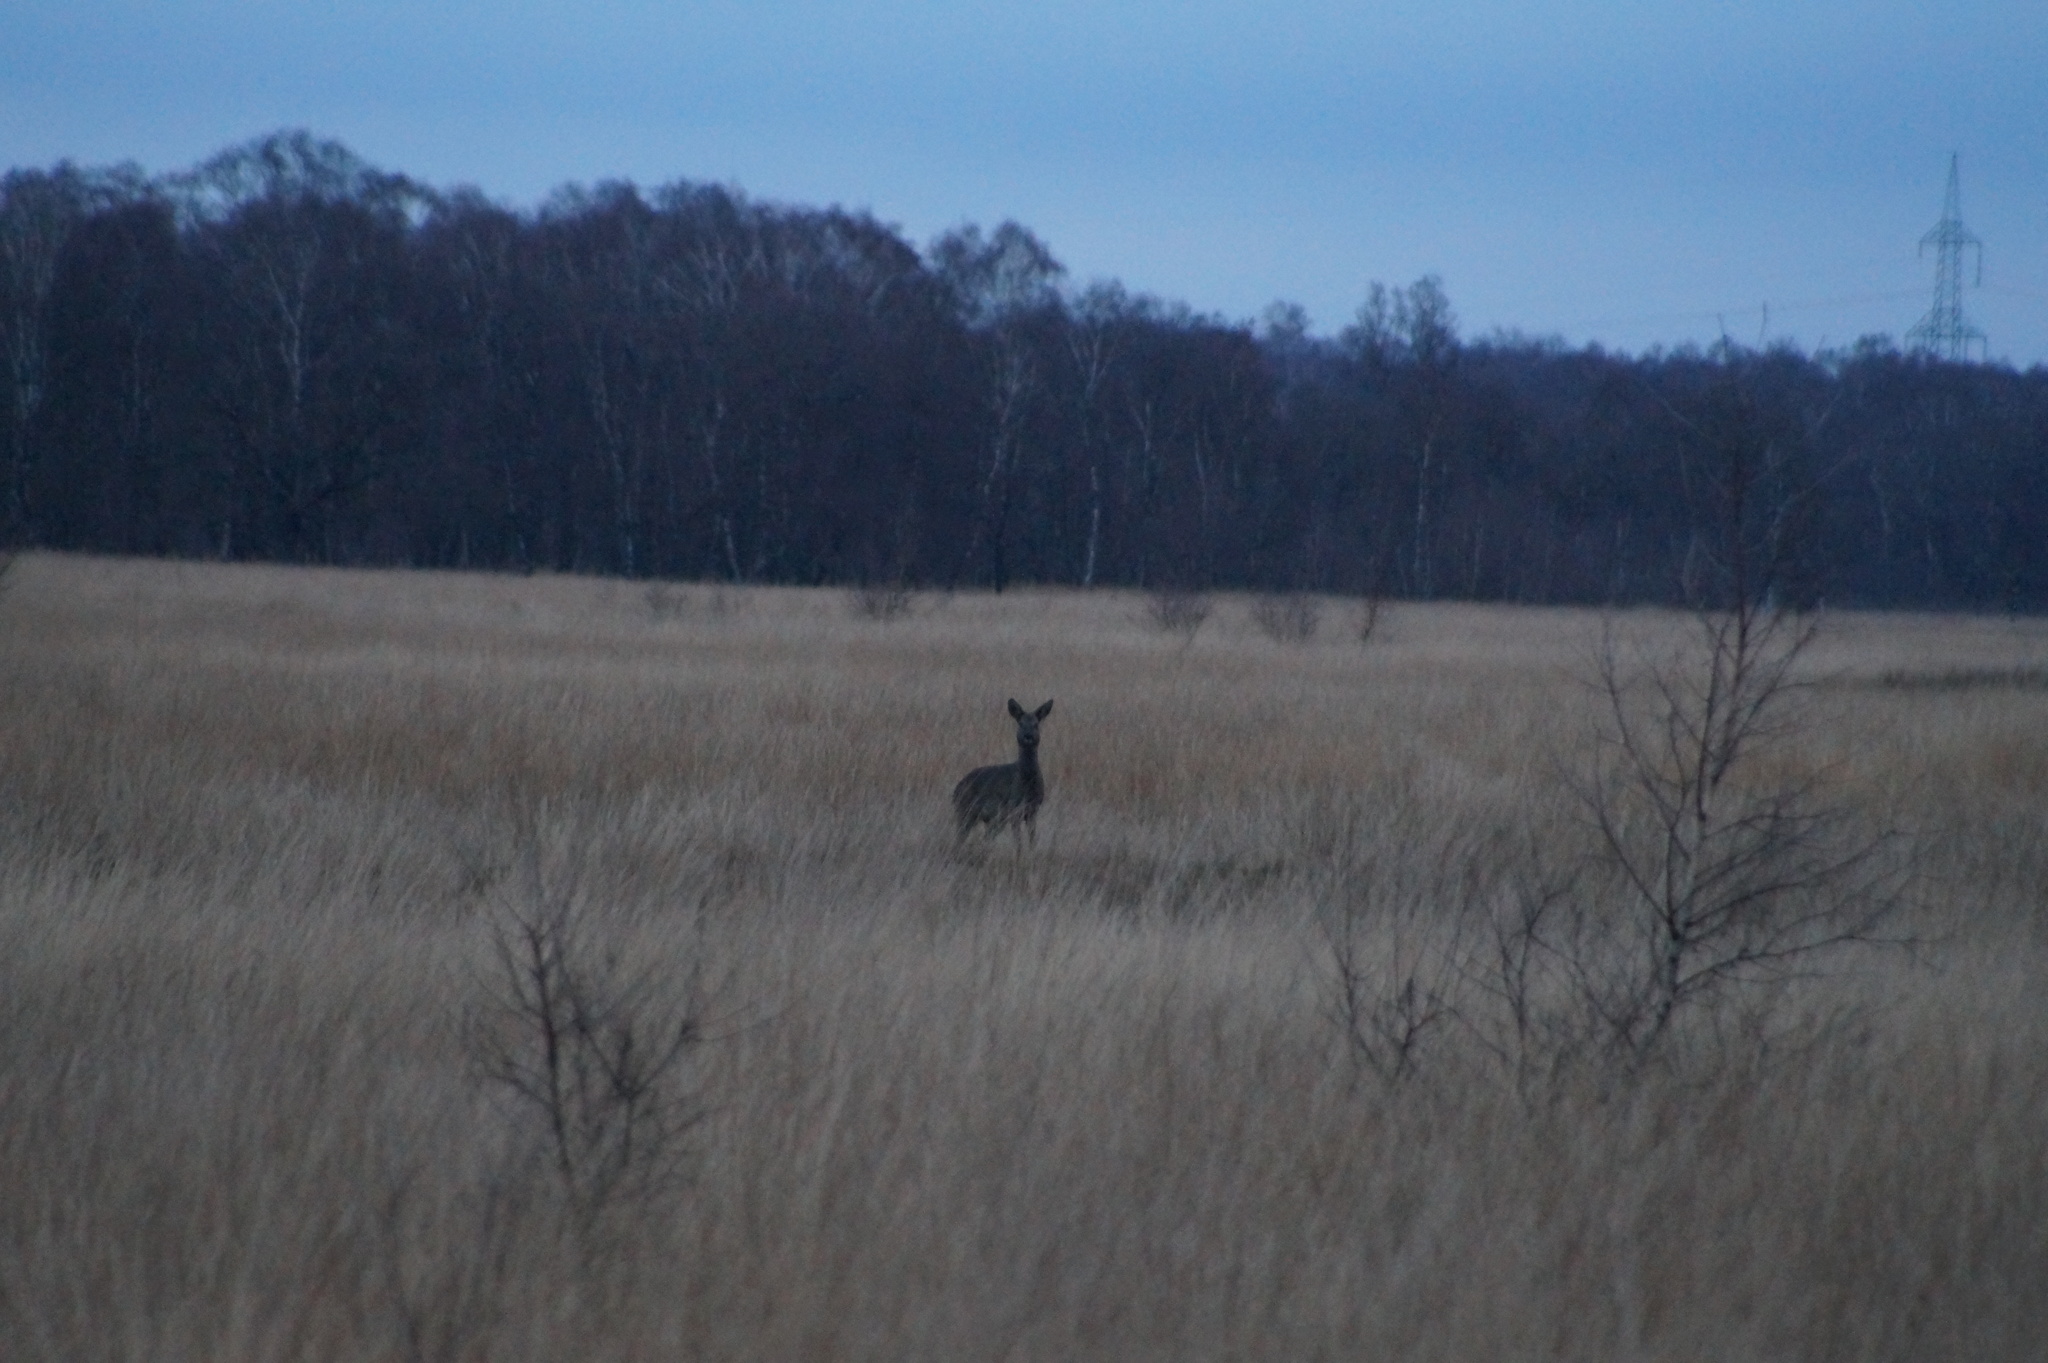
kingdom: Animalia
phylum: Chordata
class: Mammalia
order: Artiodactyla
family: Cervidae
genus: Capreolus
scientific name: Capreolus capreolus
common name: Western roe deer
